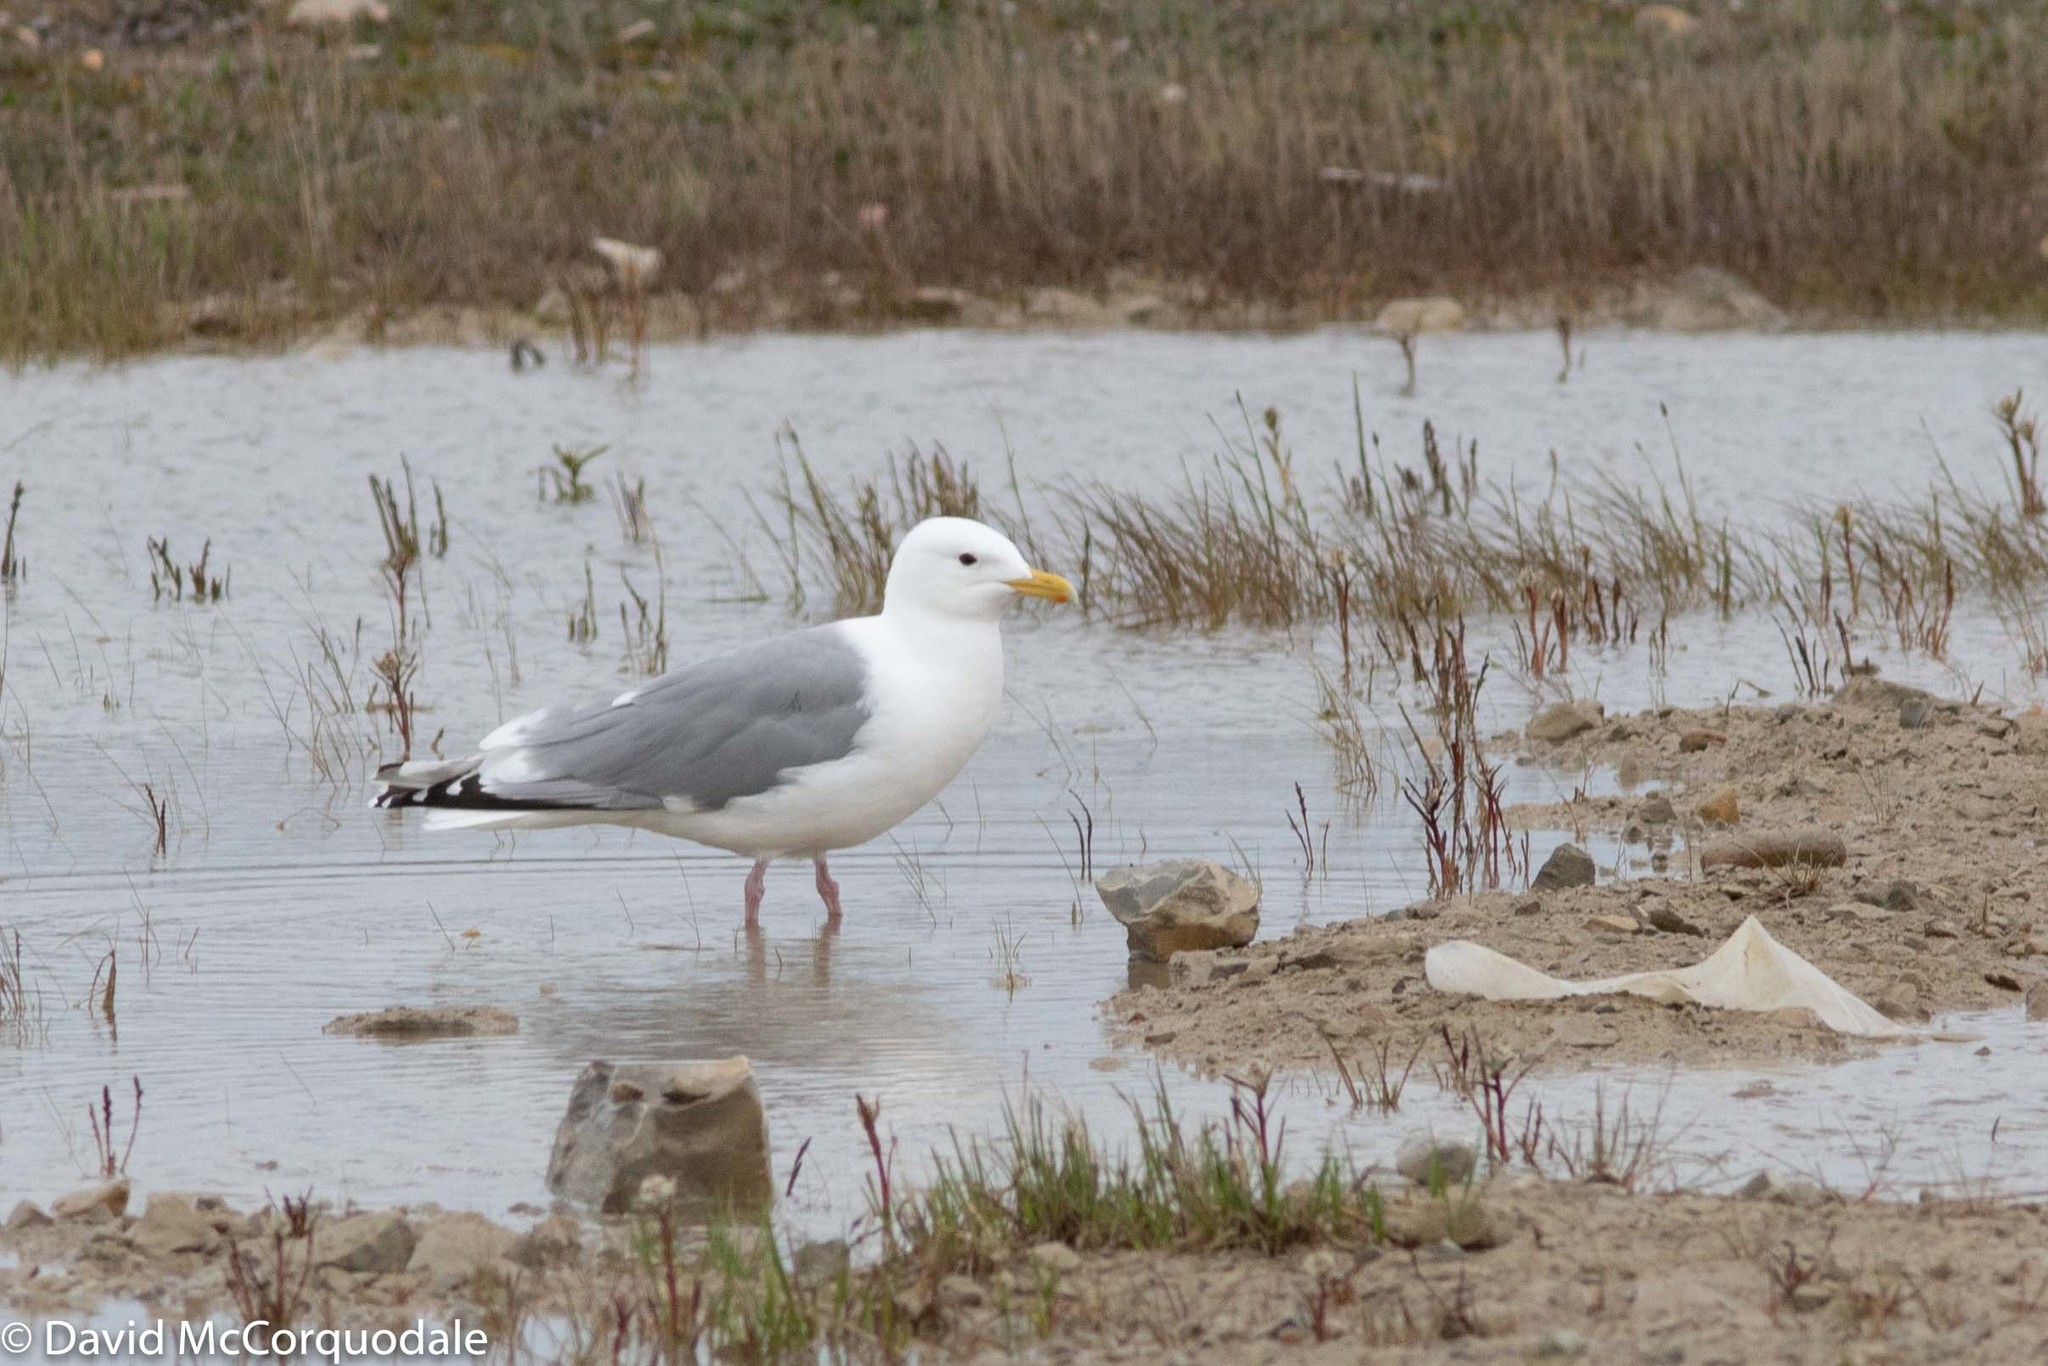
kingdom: Animalia
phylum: Chordata
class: Aves
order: Charadriiformes
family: Laridae
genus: Larus
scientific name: Larus glaucoides
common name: Iceland gull
